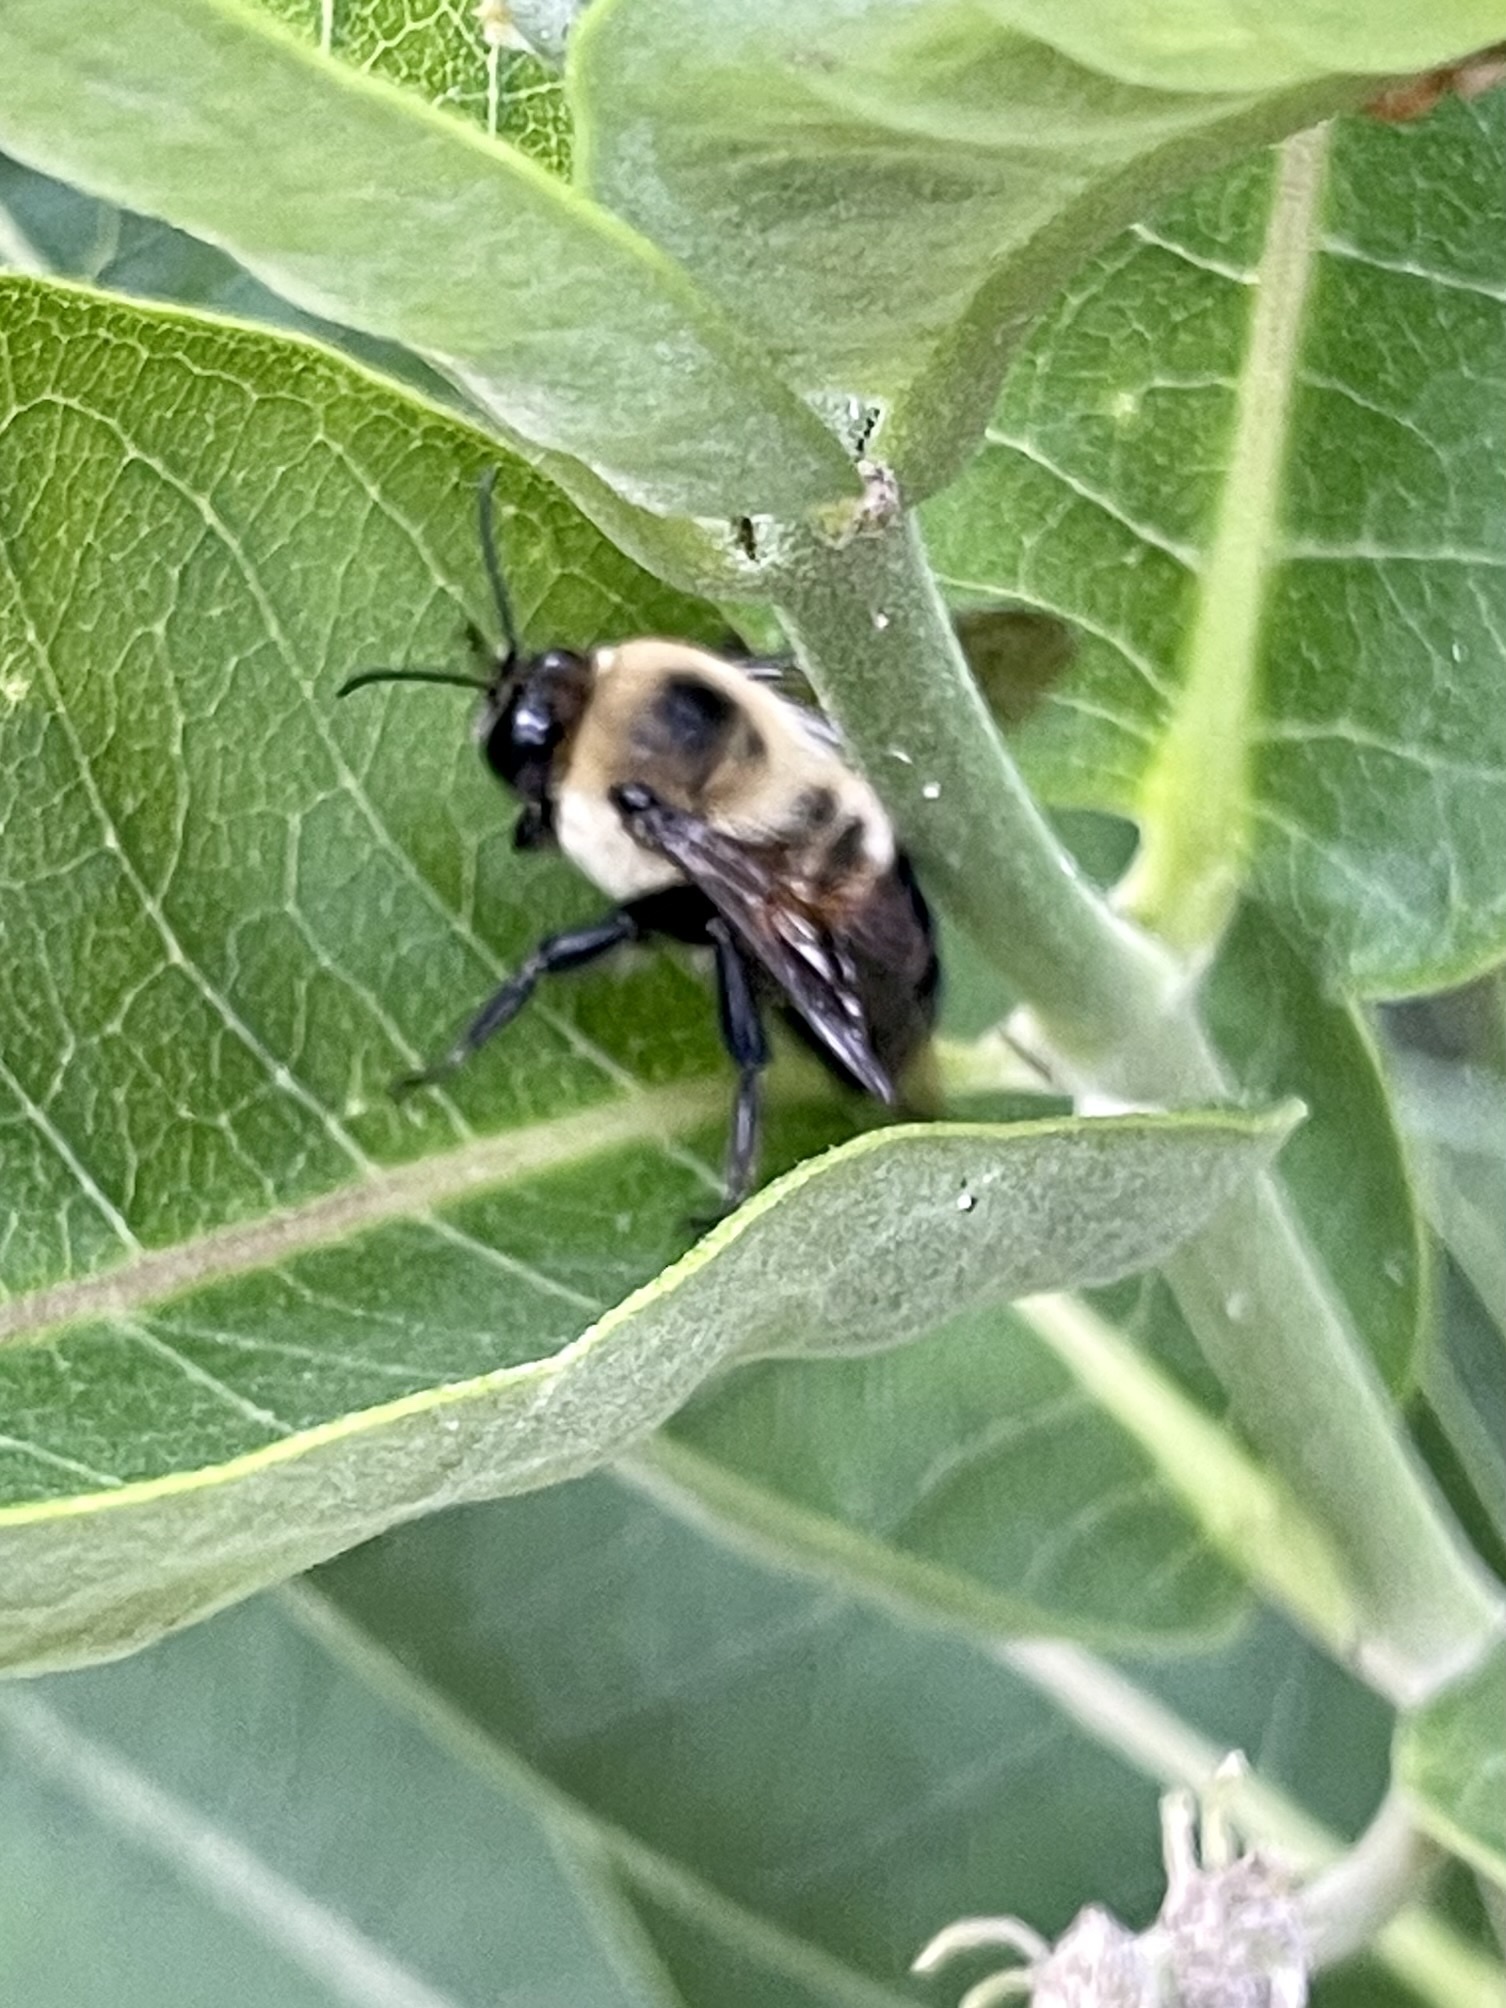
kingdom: Animalia
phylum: Arthropoda
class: Insecta
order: Hymenoptera
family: Apidae
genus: Bombus
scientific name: Bombus griseocollis
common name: Brown-belted bumble bee
